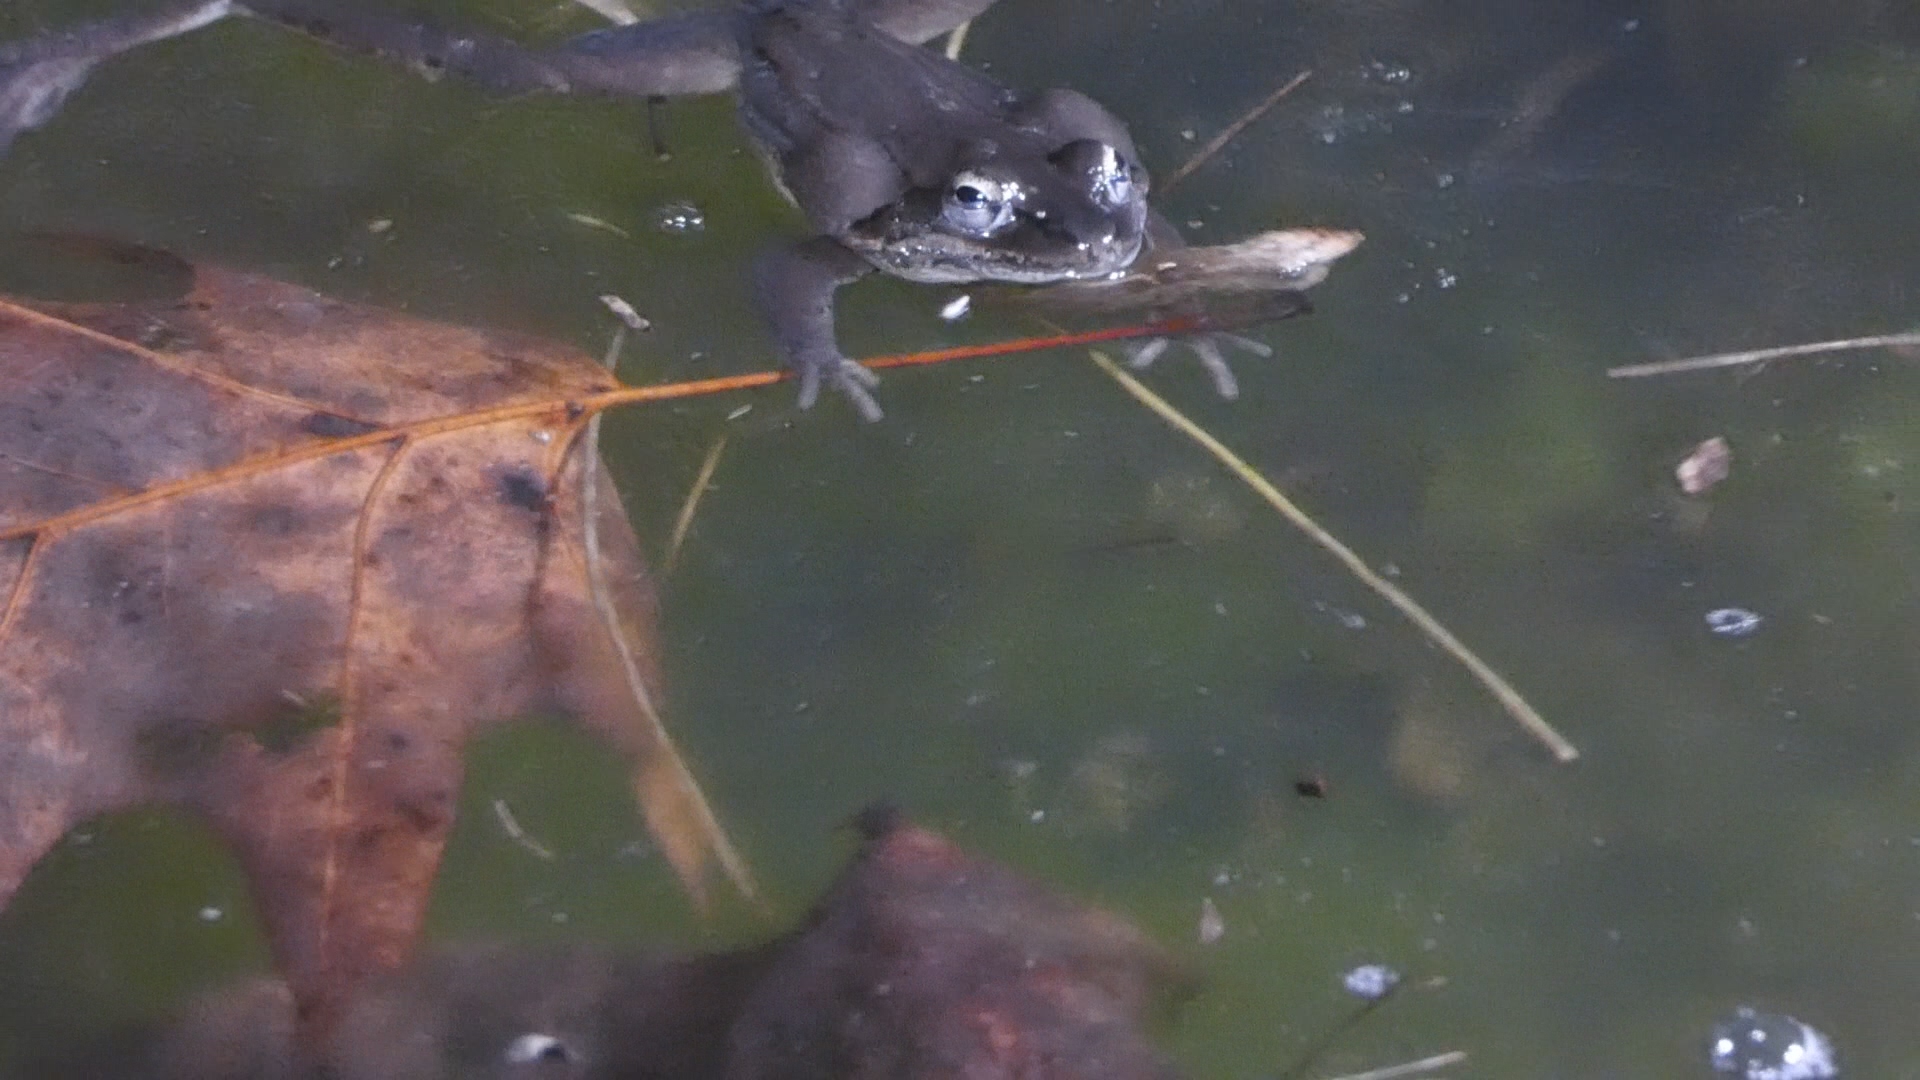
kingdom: Animalia
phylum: Chordata
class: Amphibia
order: Anura
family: Ranidae
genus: Lithobates
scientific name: Lithobates sylvaticus
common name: Wood frog
